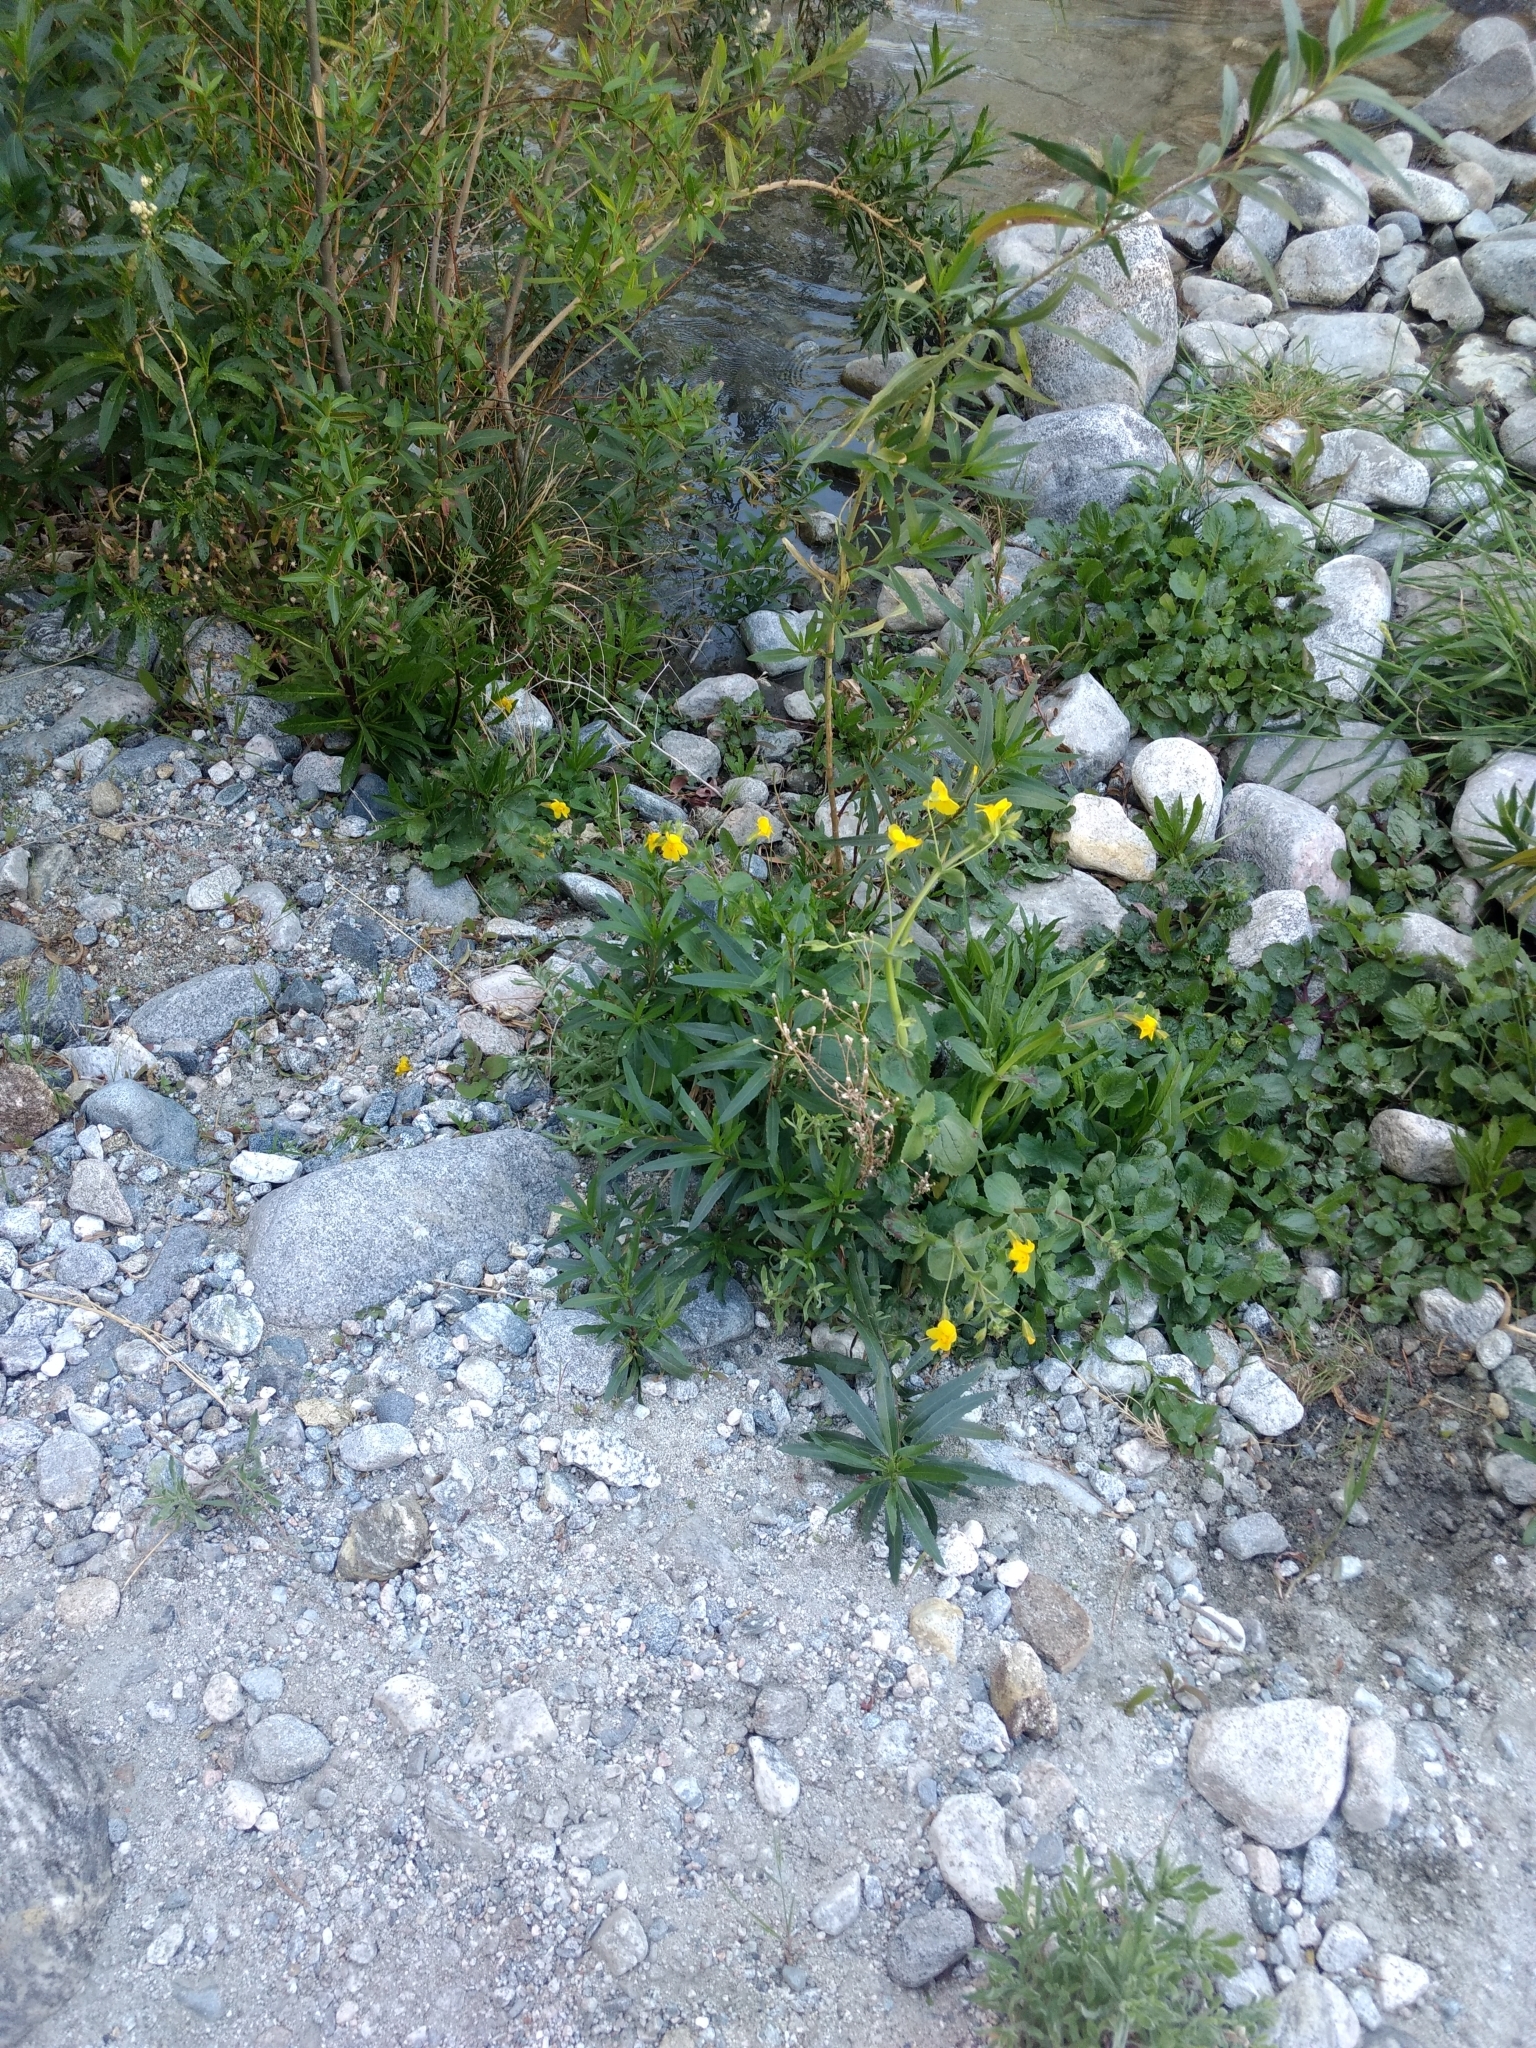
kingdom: Plantae
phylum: Tracheophyta
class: Magnoliopsida
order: Lamiales
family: Phrymaceae
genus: Erythranthe
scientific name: Erythranthe guttata
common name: Monkeyflower
